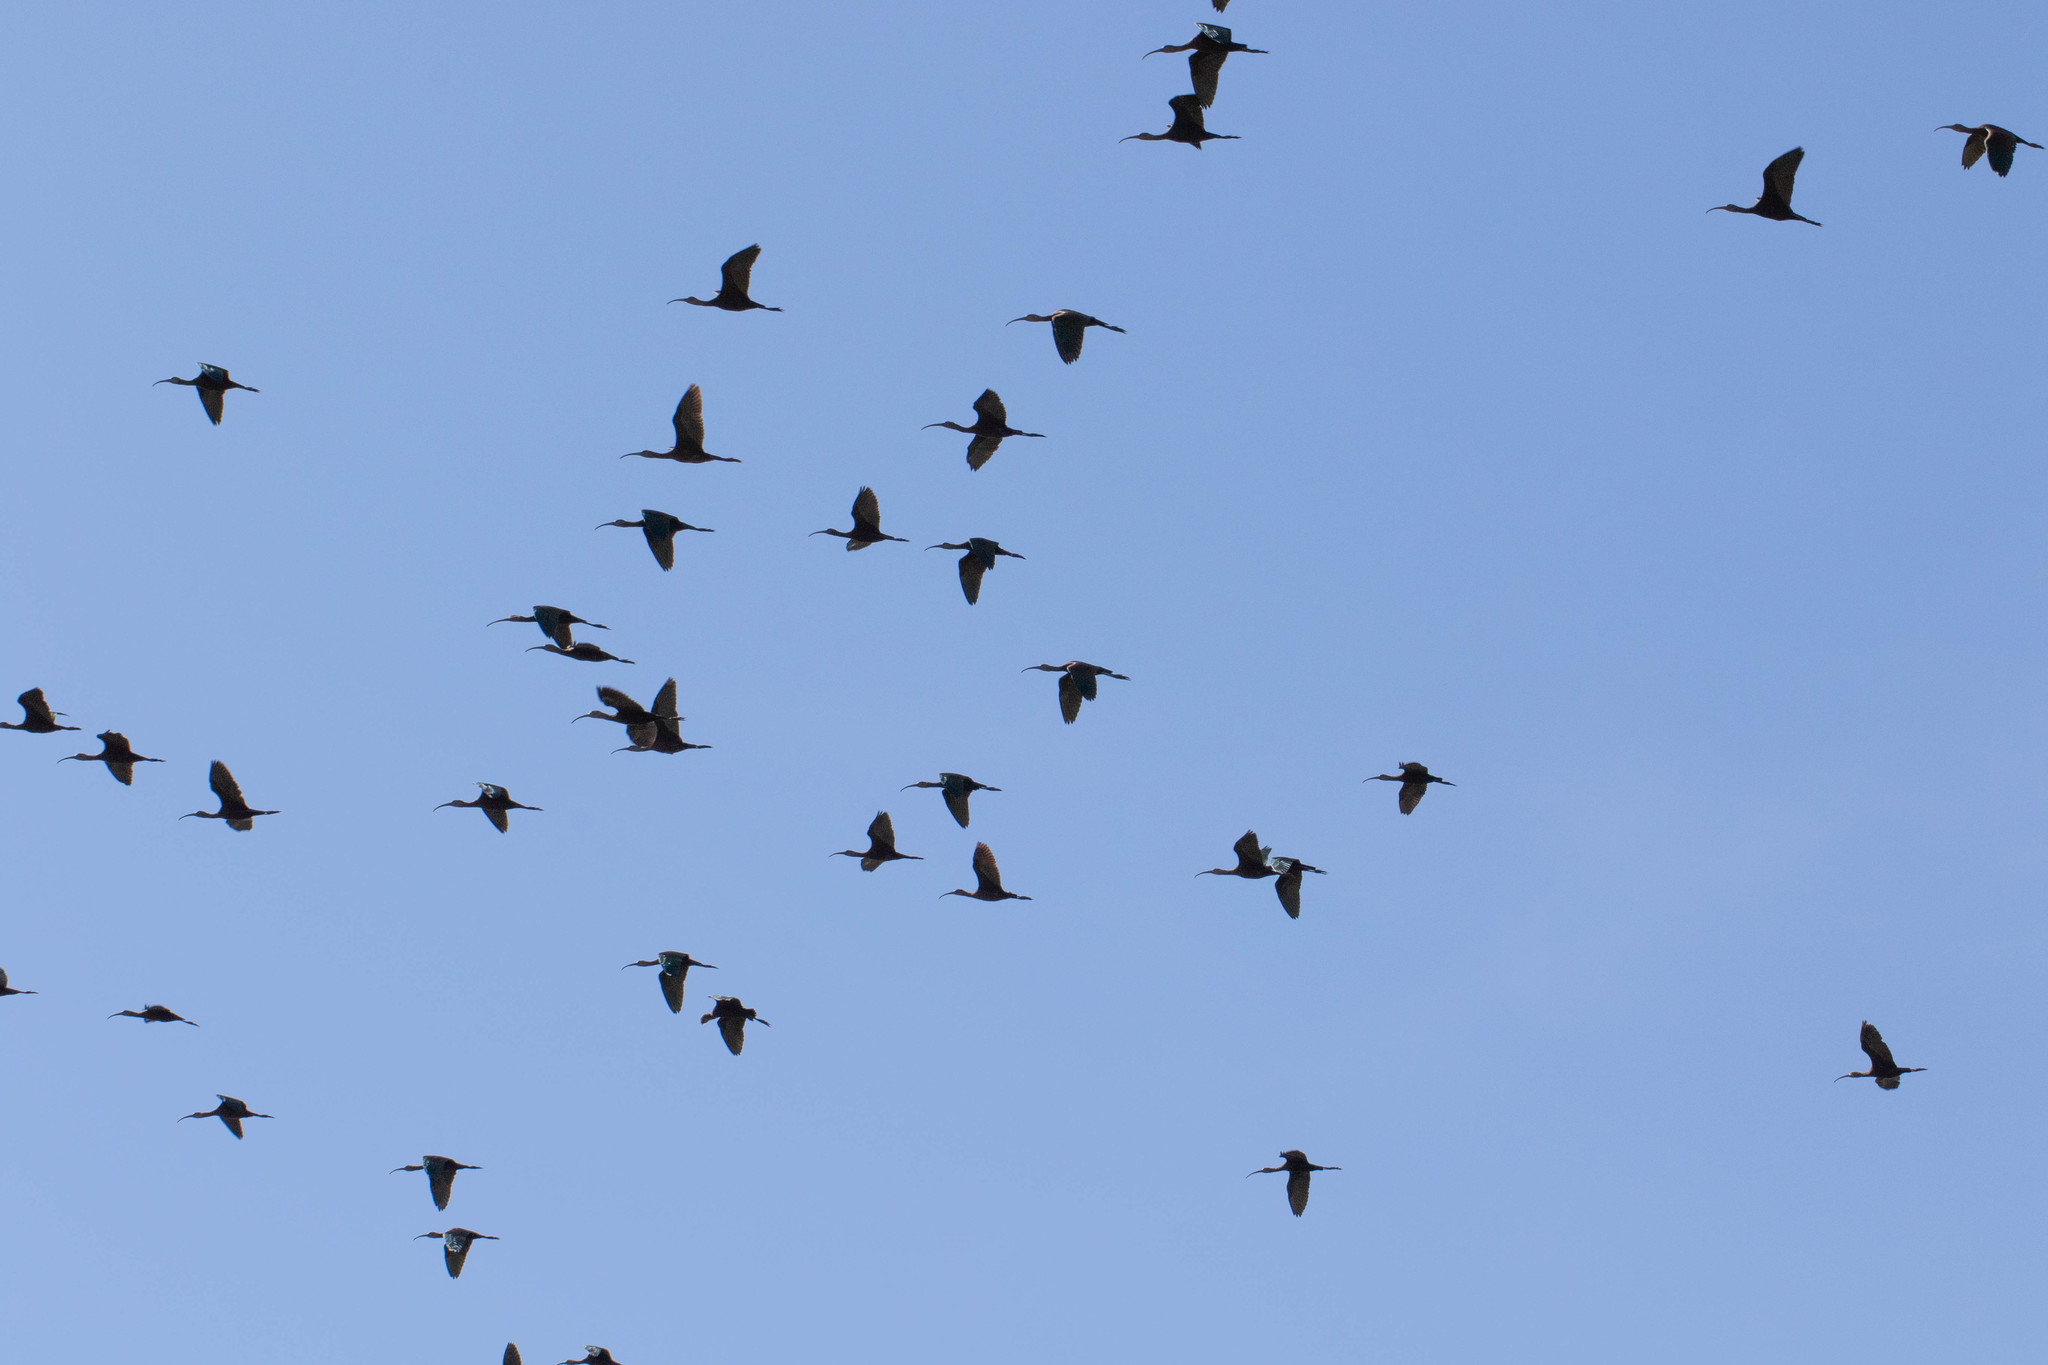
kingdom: Animalia
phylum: Chordata
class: Aves
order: Pelecaniformes
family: Threskiornithidae
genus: Plegadis
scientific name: Plegadis
